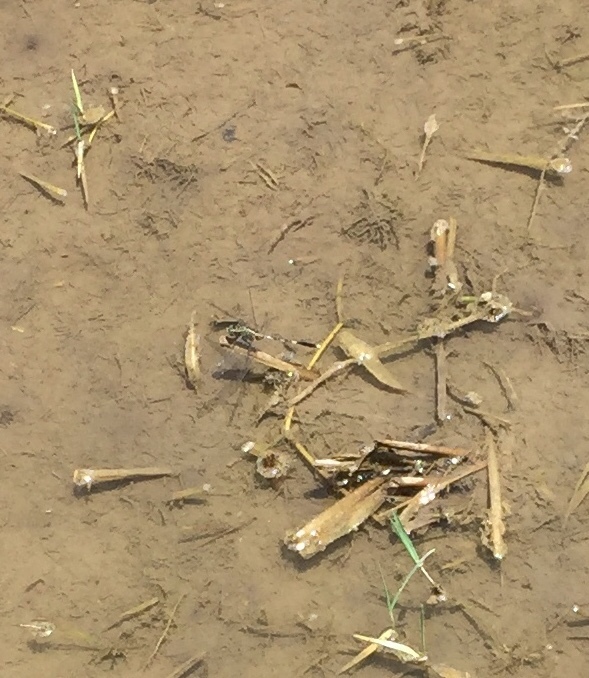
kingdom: Animalia
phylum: Arthropoda
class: Insecta
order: Odonata
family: Libellulidae
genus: Orthetrum
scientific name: Orthetrum sabina
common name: Slender skimmer
